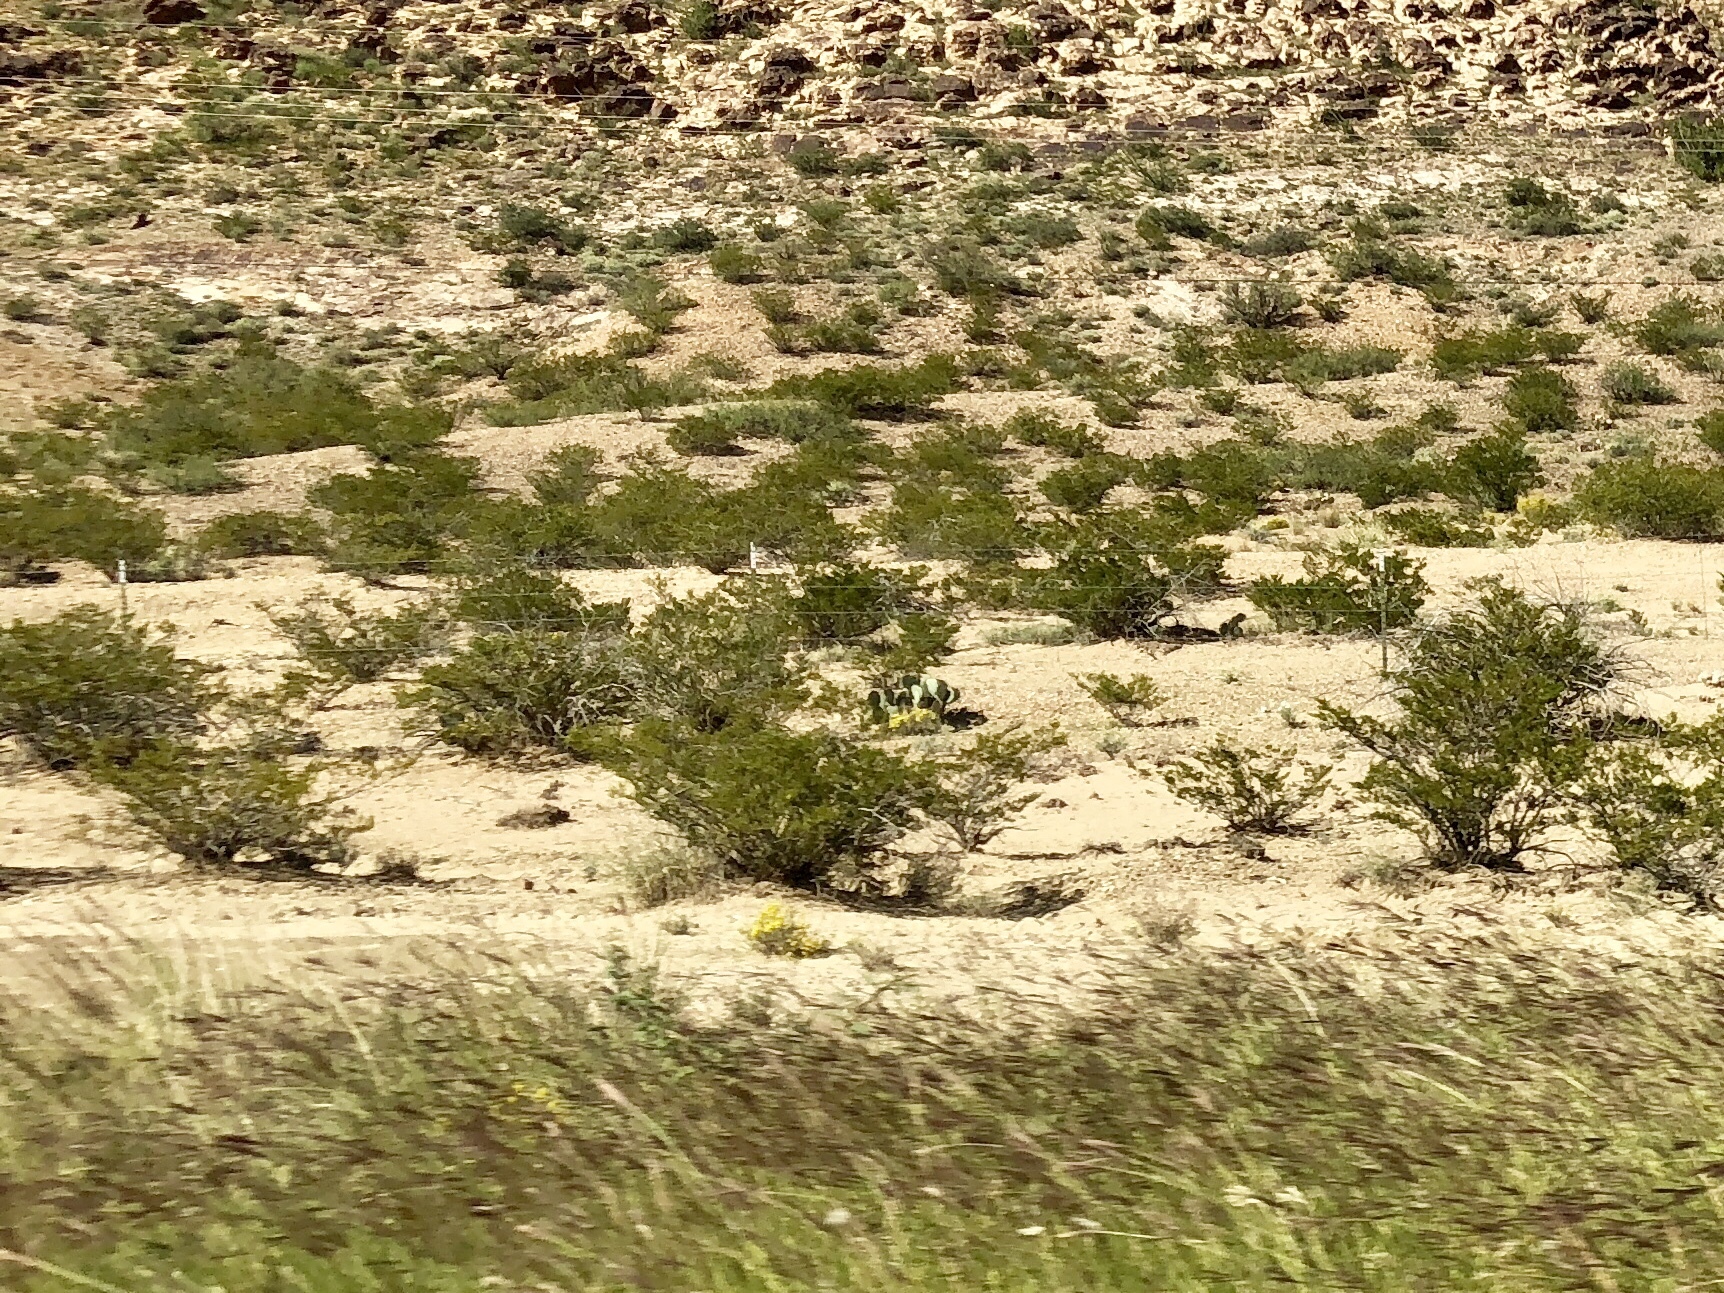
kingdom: Plantae
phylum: Tracheophyta
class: Magnoliopsida
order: Zygophyllales
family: Zygophyllaceae
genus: Larrea
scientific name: Larrea tridentata
